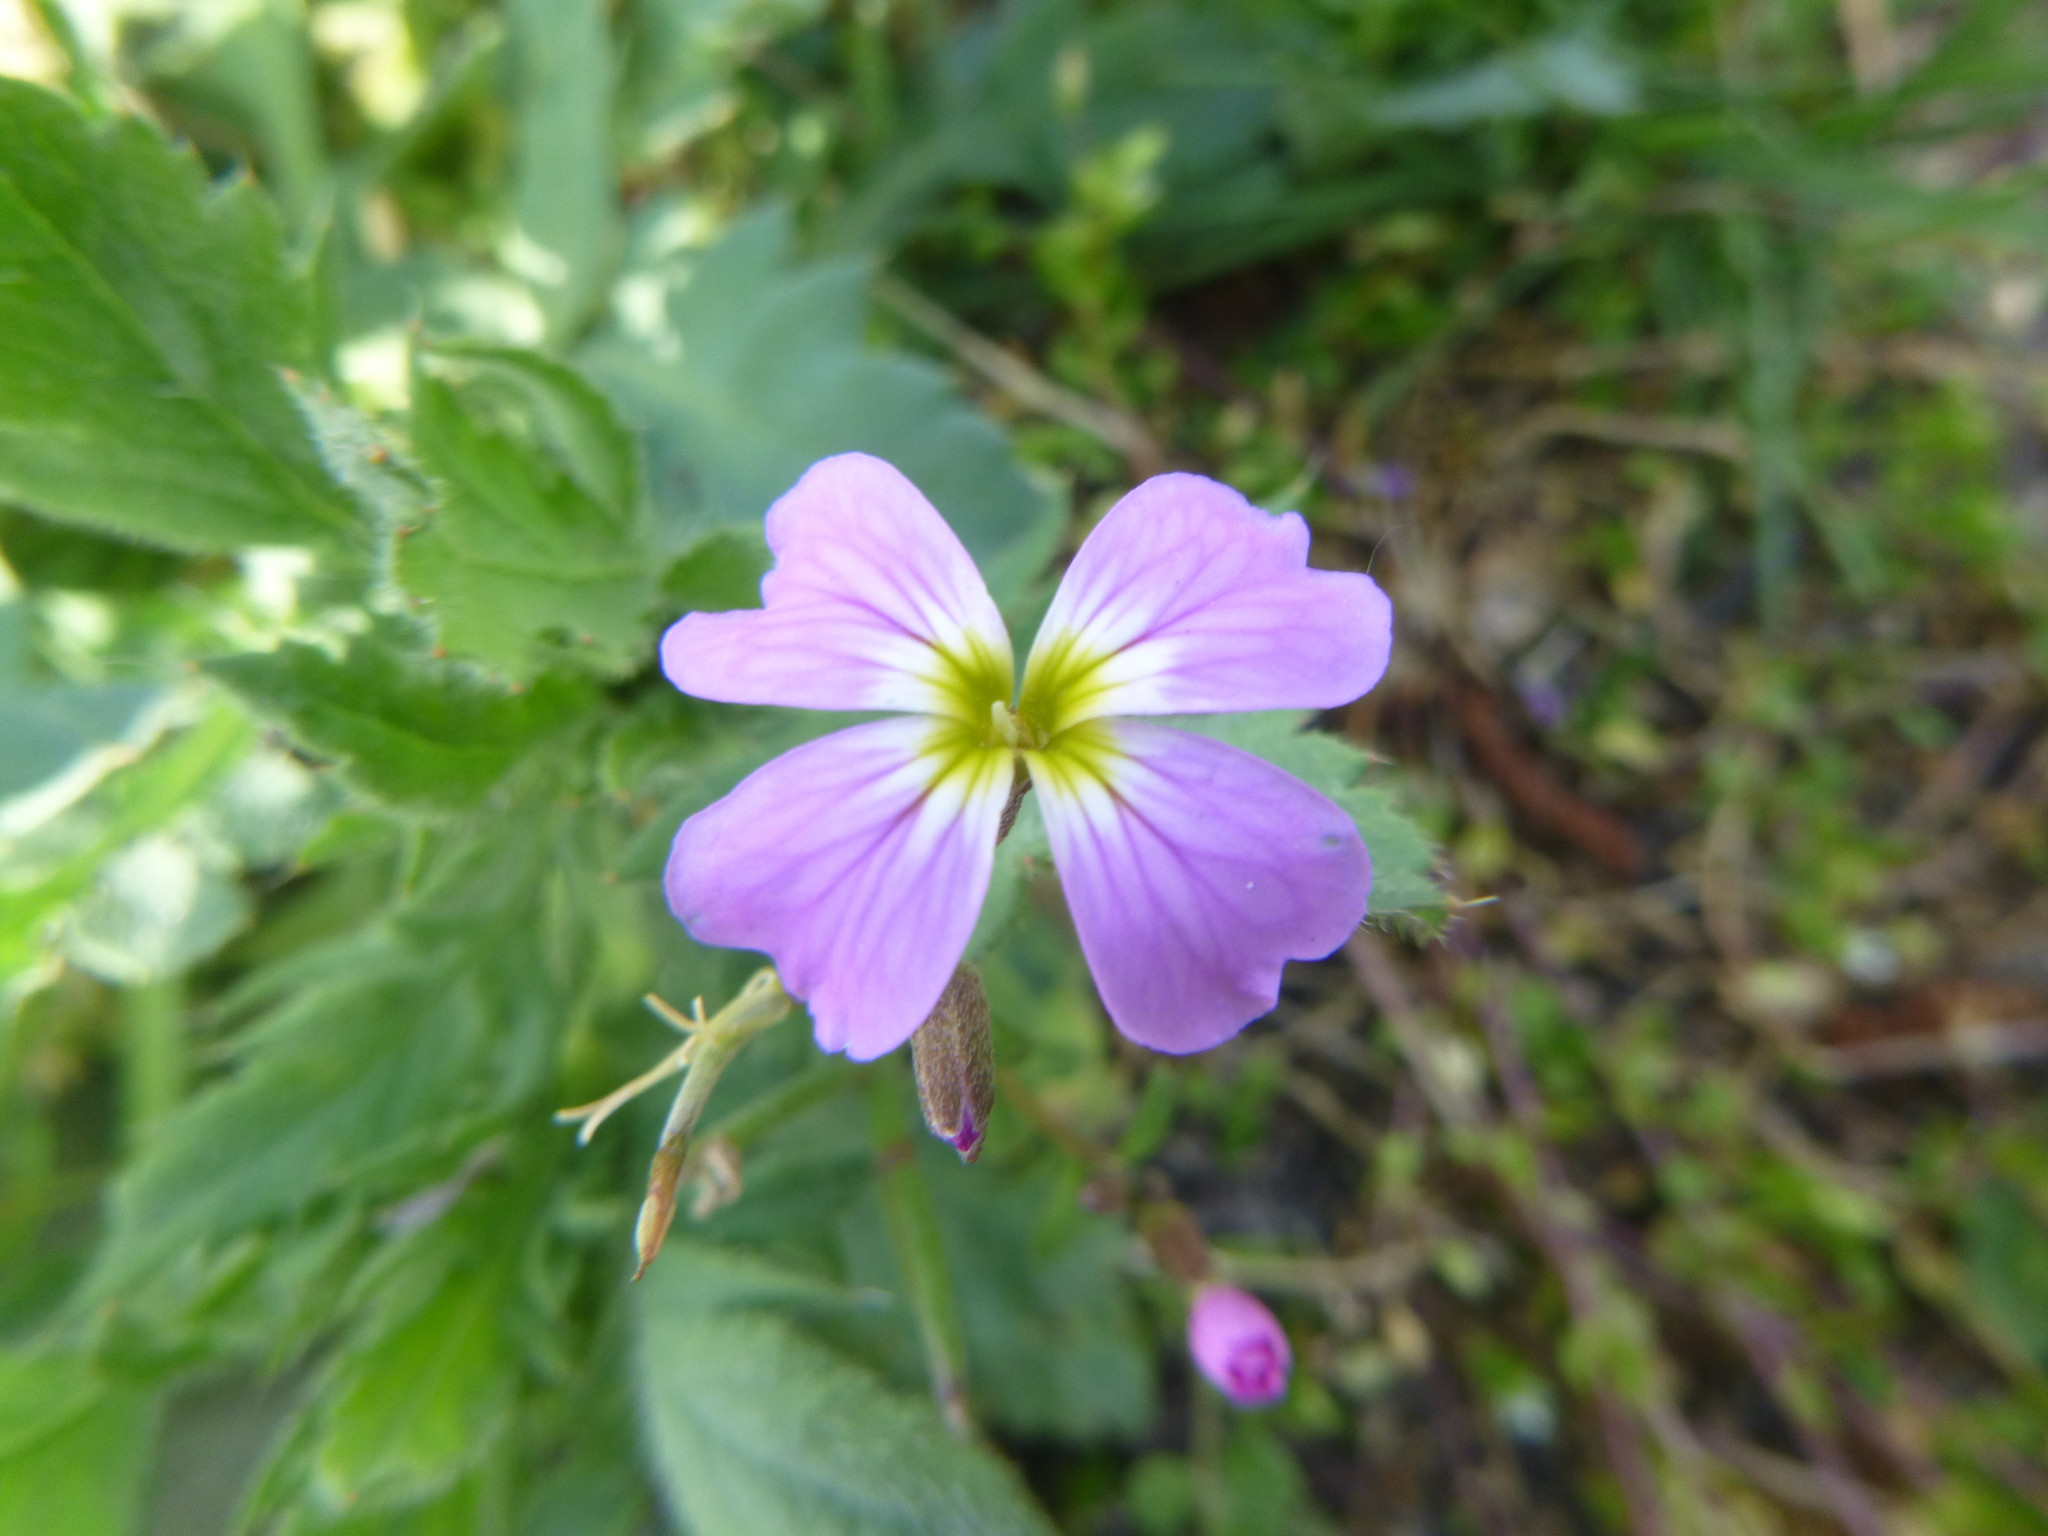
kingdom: Plantae
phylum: Tracheophyta
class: Magnoliopsida
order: Brassicales
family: Brassicaceae
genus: Malcolmia
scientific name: Malcolmia maritima
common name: Virginia stock
